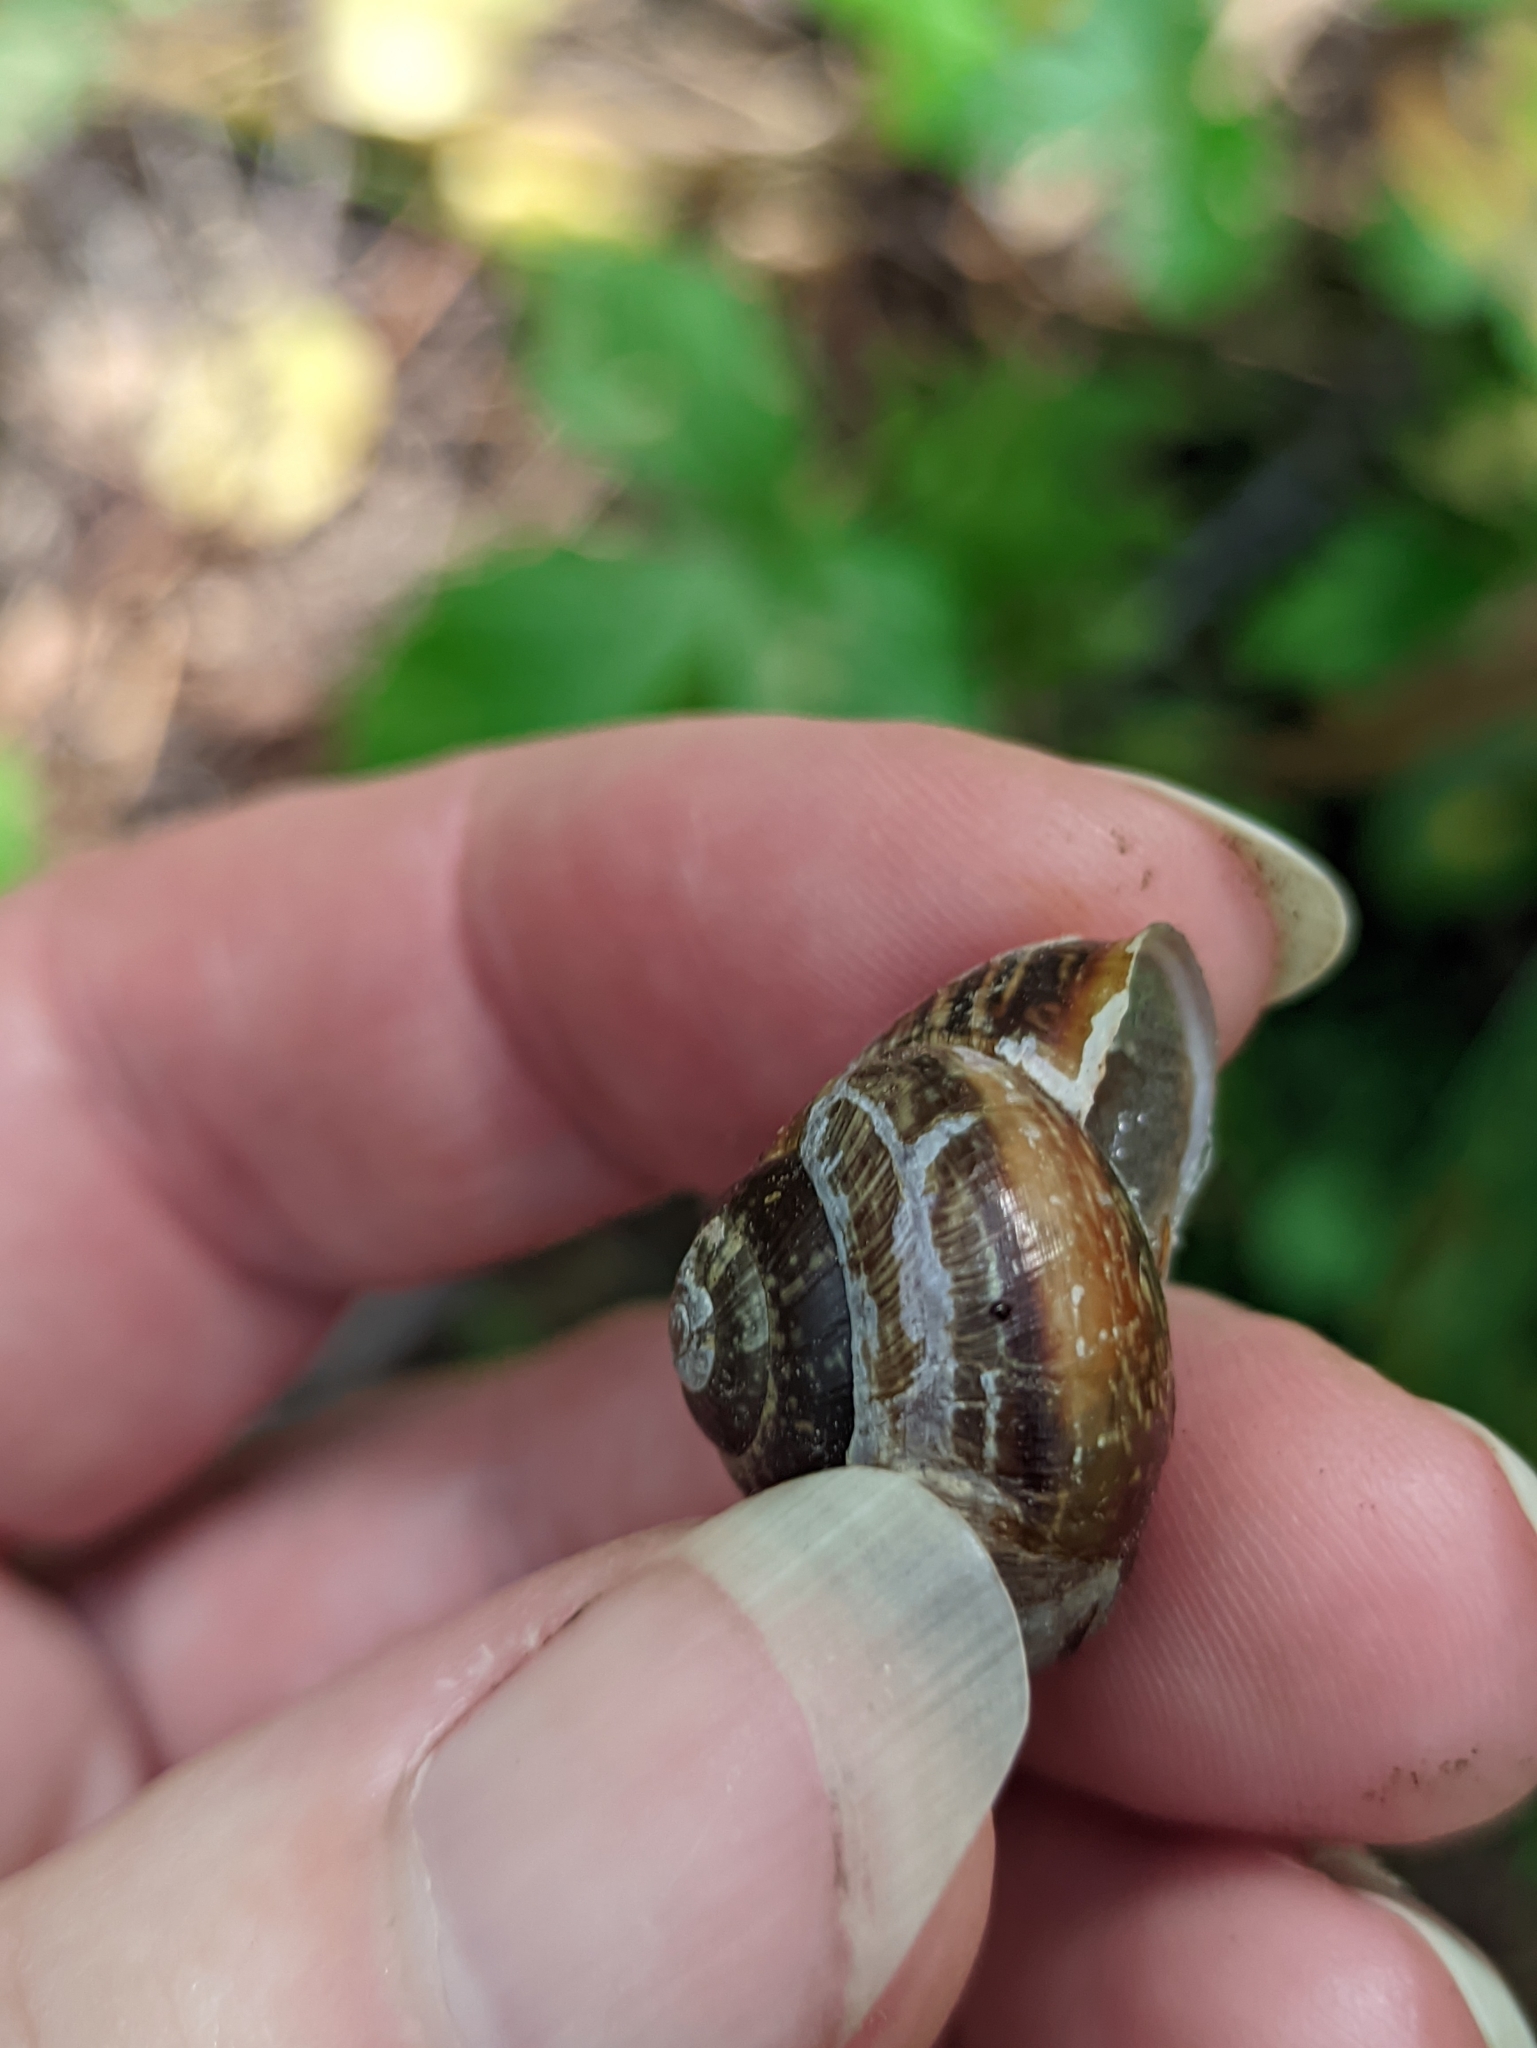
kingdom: Animalia
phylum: Mollusca
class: Gastropoda
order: Stylommatophora
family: Helicidae
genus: Arianta
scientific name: Arianta arbustorum
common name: Copse snail
